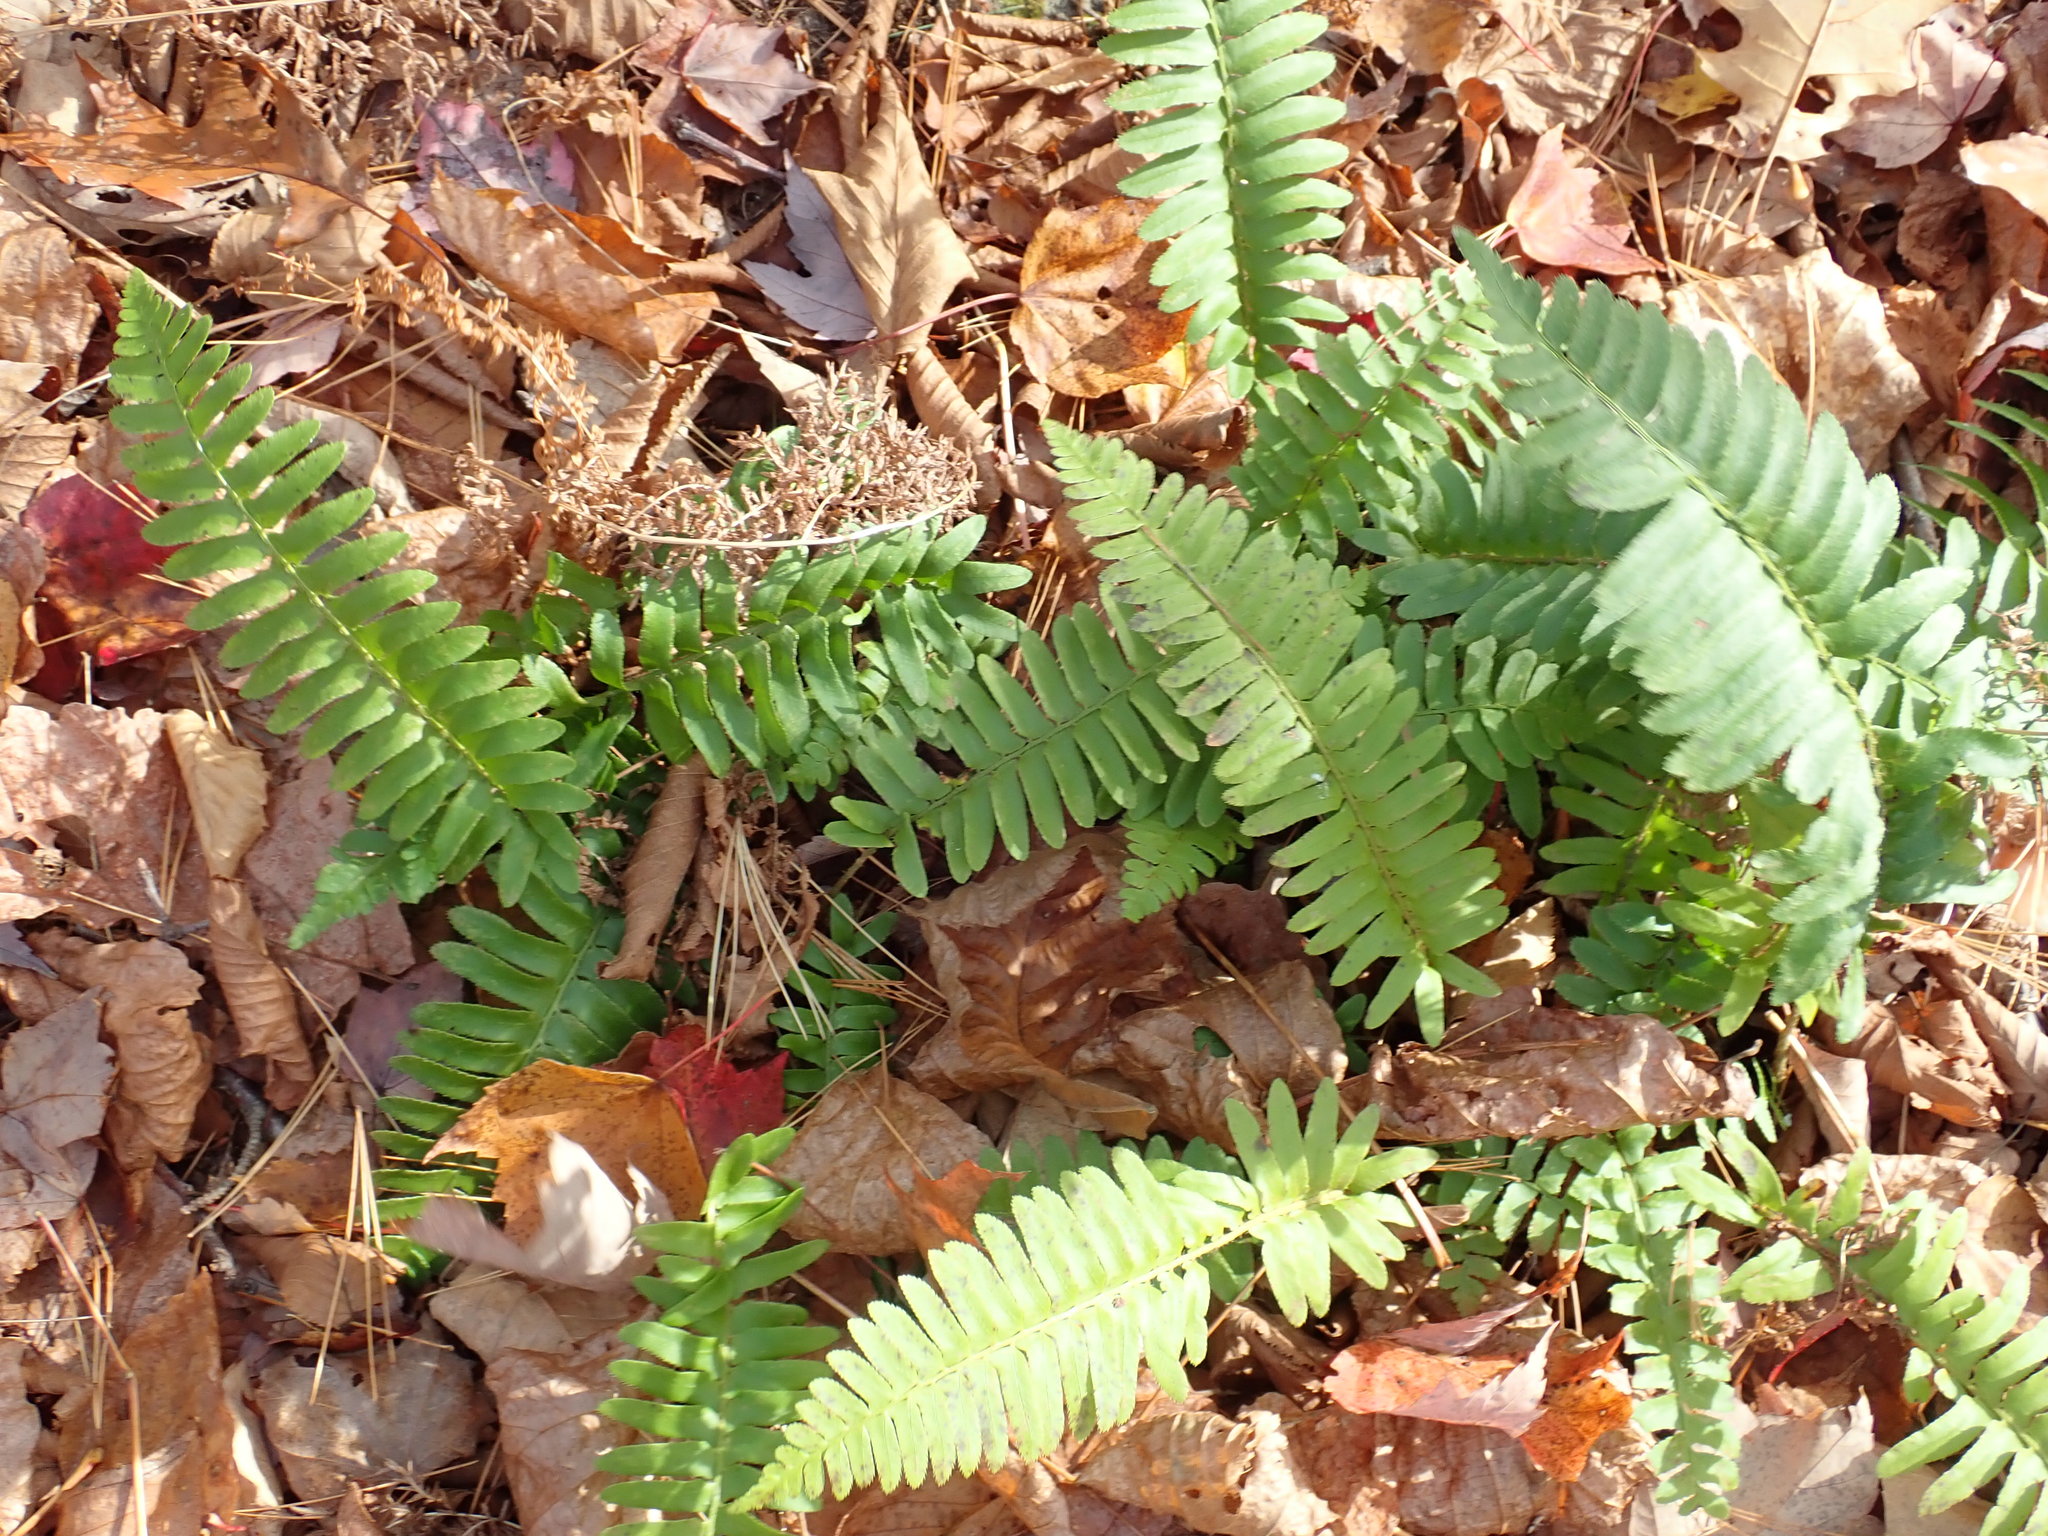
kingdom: Plantae
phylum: Tracheophyta
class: Polypodiopsida
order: Polypodiales
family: Dryopteridaceae
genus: Polystichum
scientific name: Polystichum acrostichoides
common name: Christmas fern
